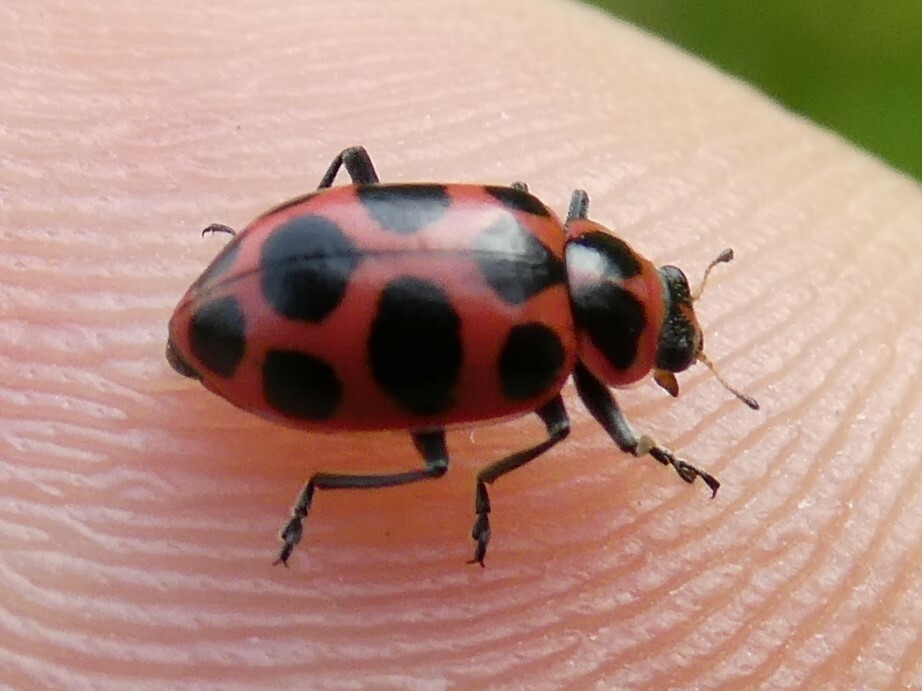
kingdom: Animalia
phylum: Arthropoda
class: Insecta
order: Coleoptera
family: Coccinellidae
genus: Coleomegilla
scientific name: Coleomegilla maculata
